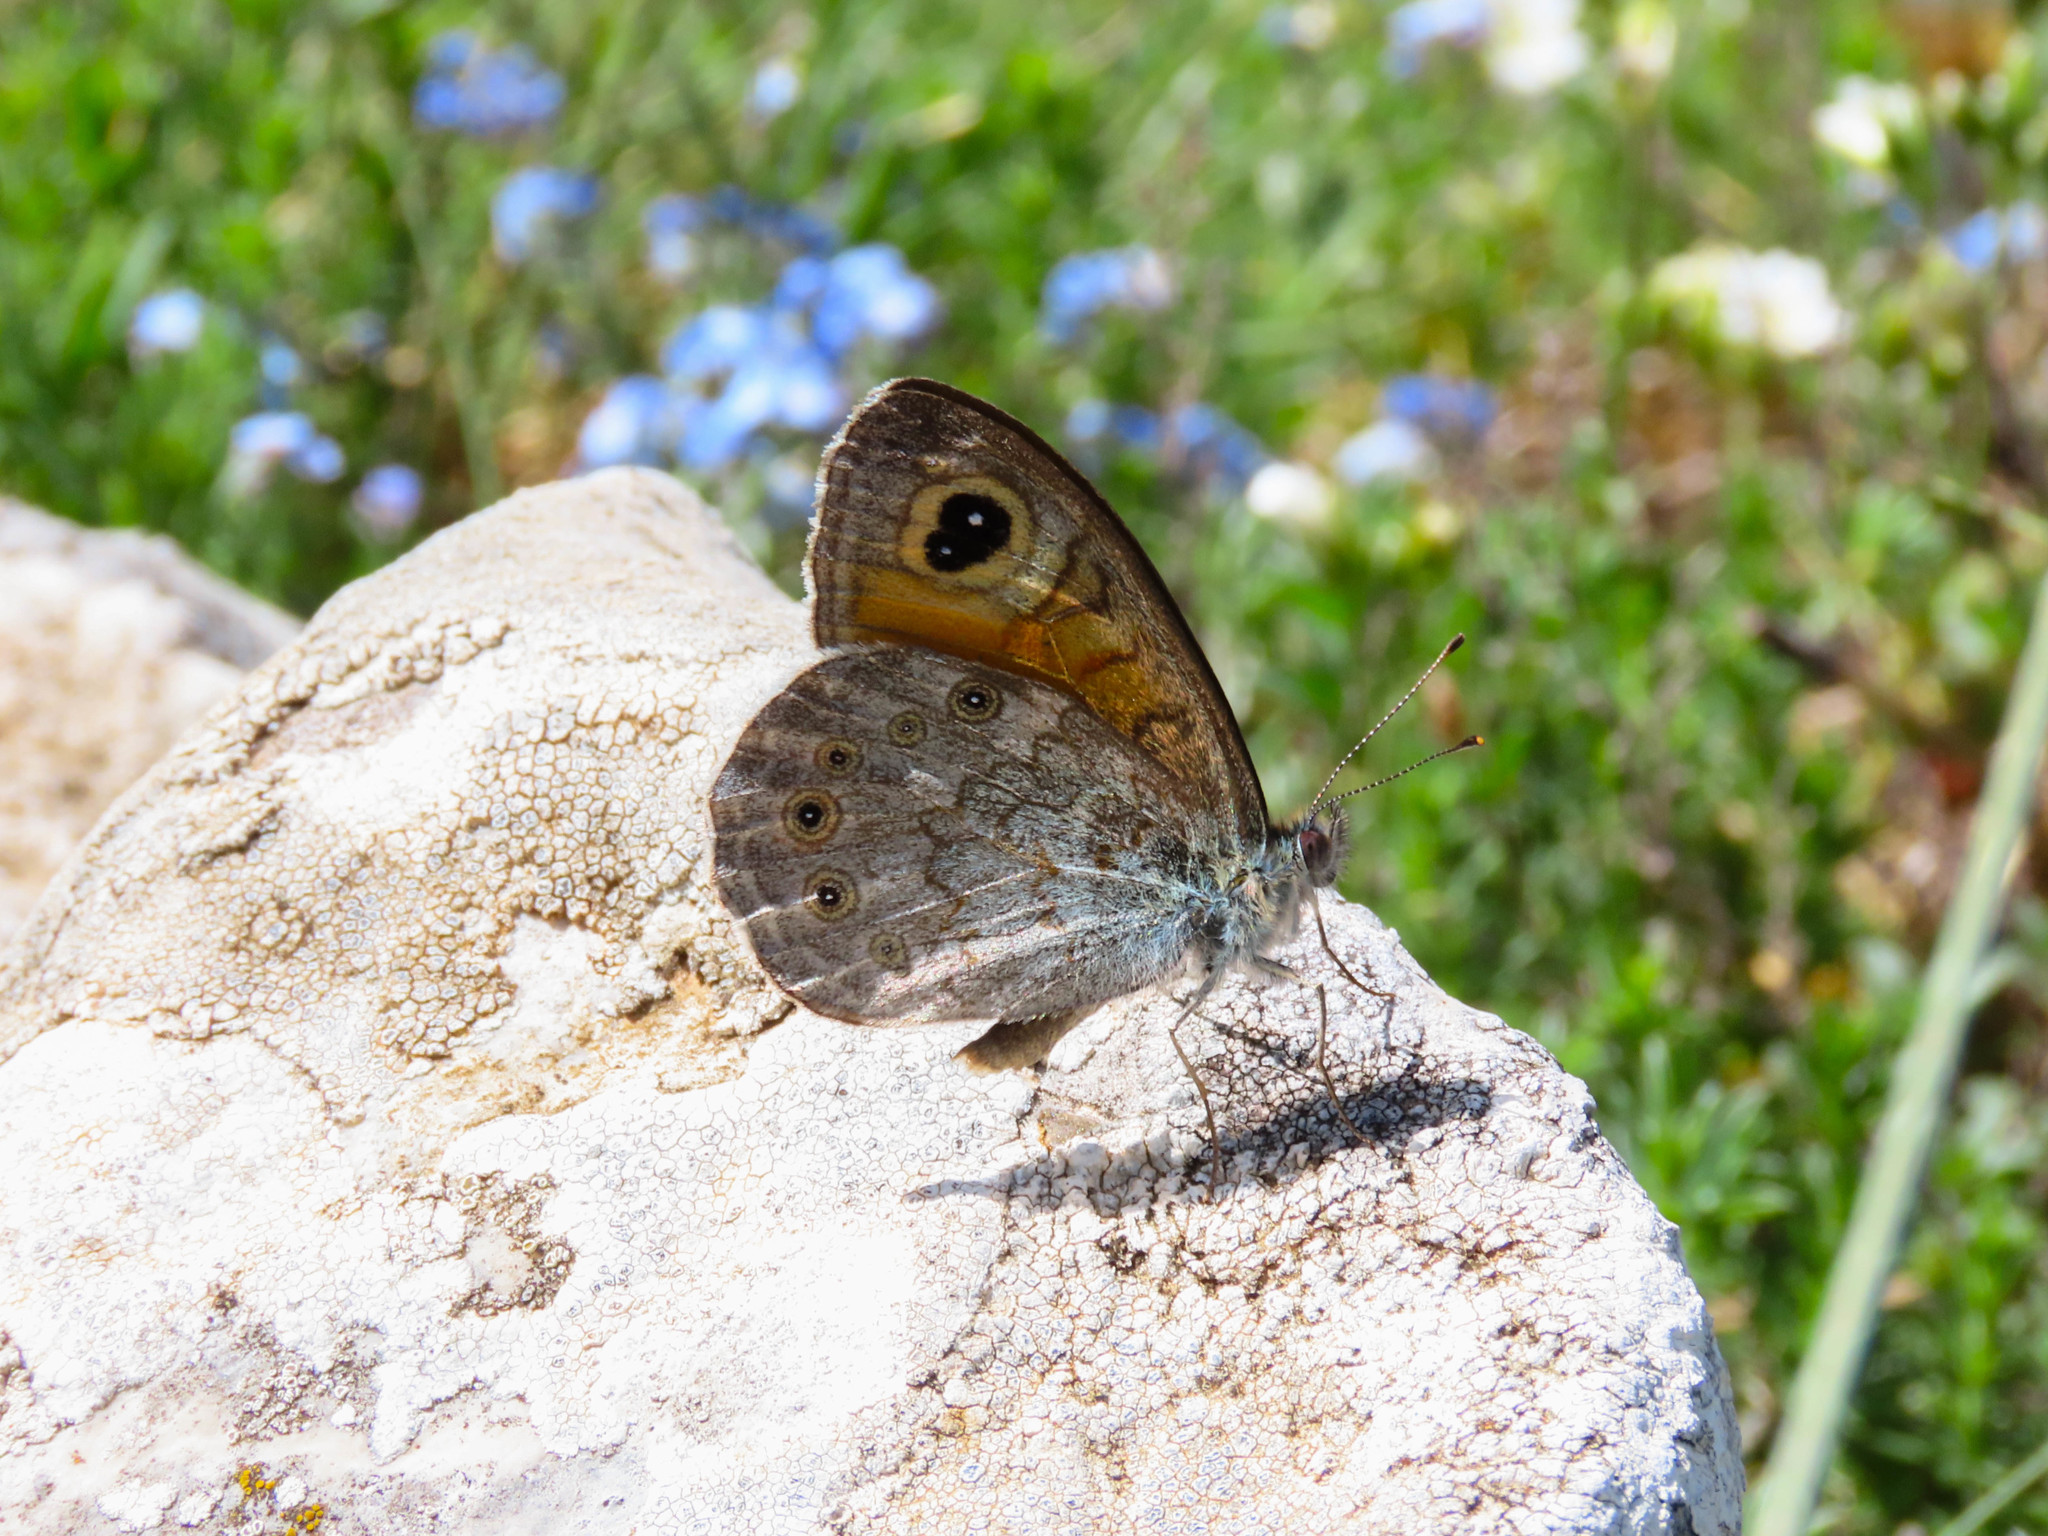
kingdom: Animalia
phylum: Arthropoda
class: Insecta
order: Lepidoptera
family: Nymphalidae
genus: Pararge
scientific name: Pararge Lasiommata maera
